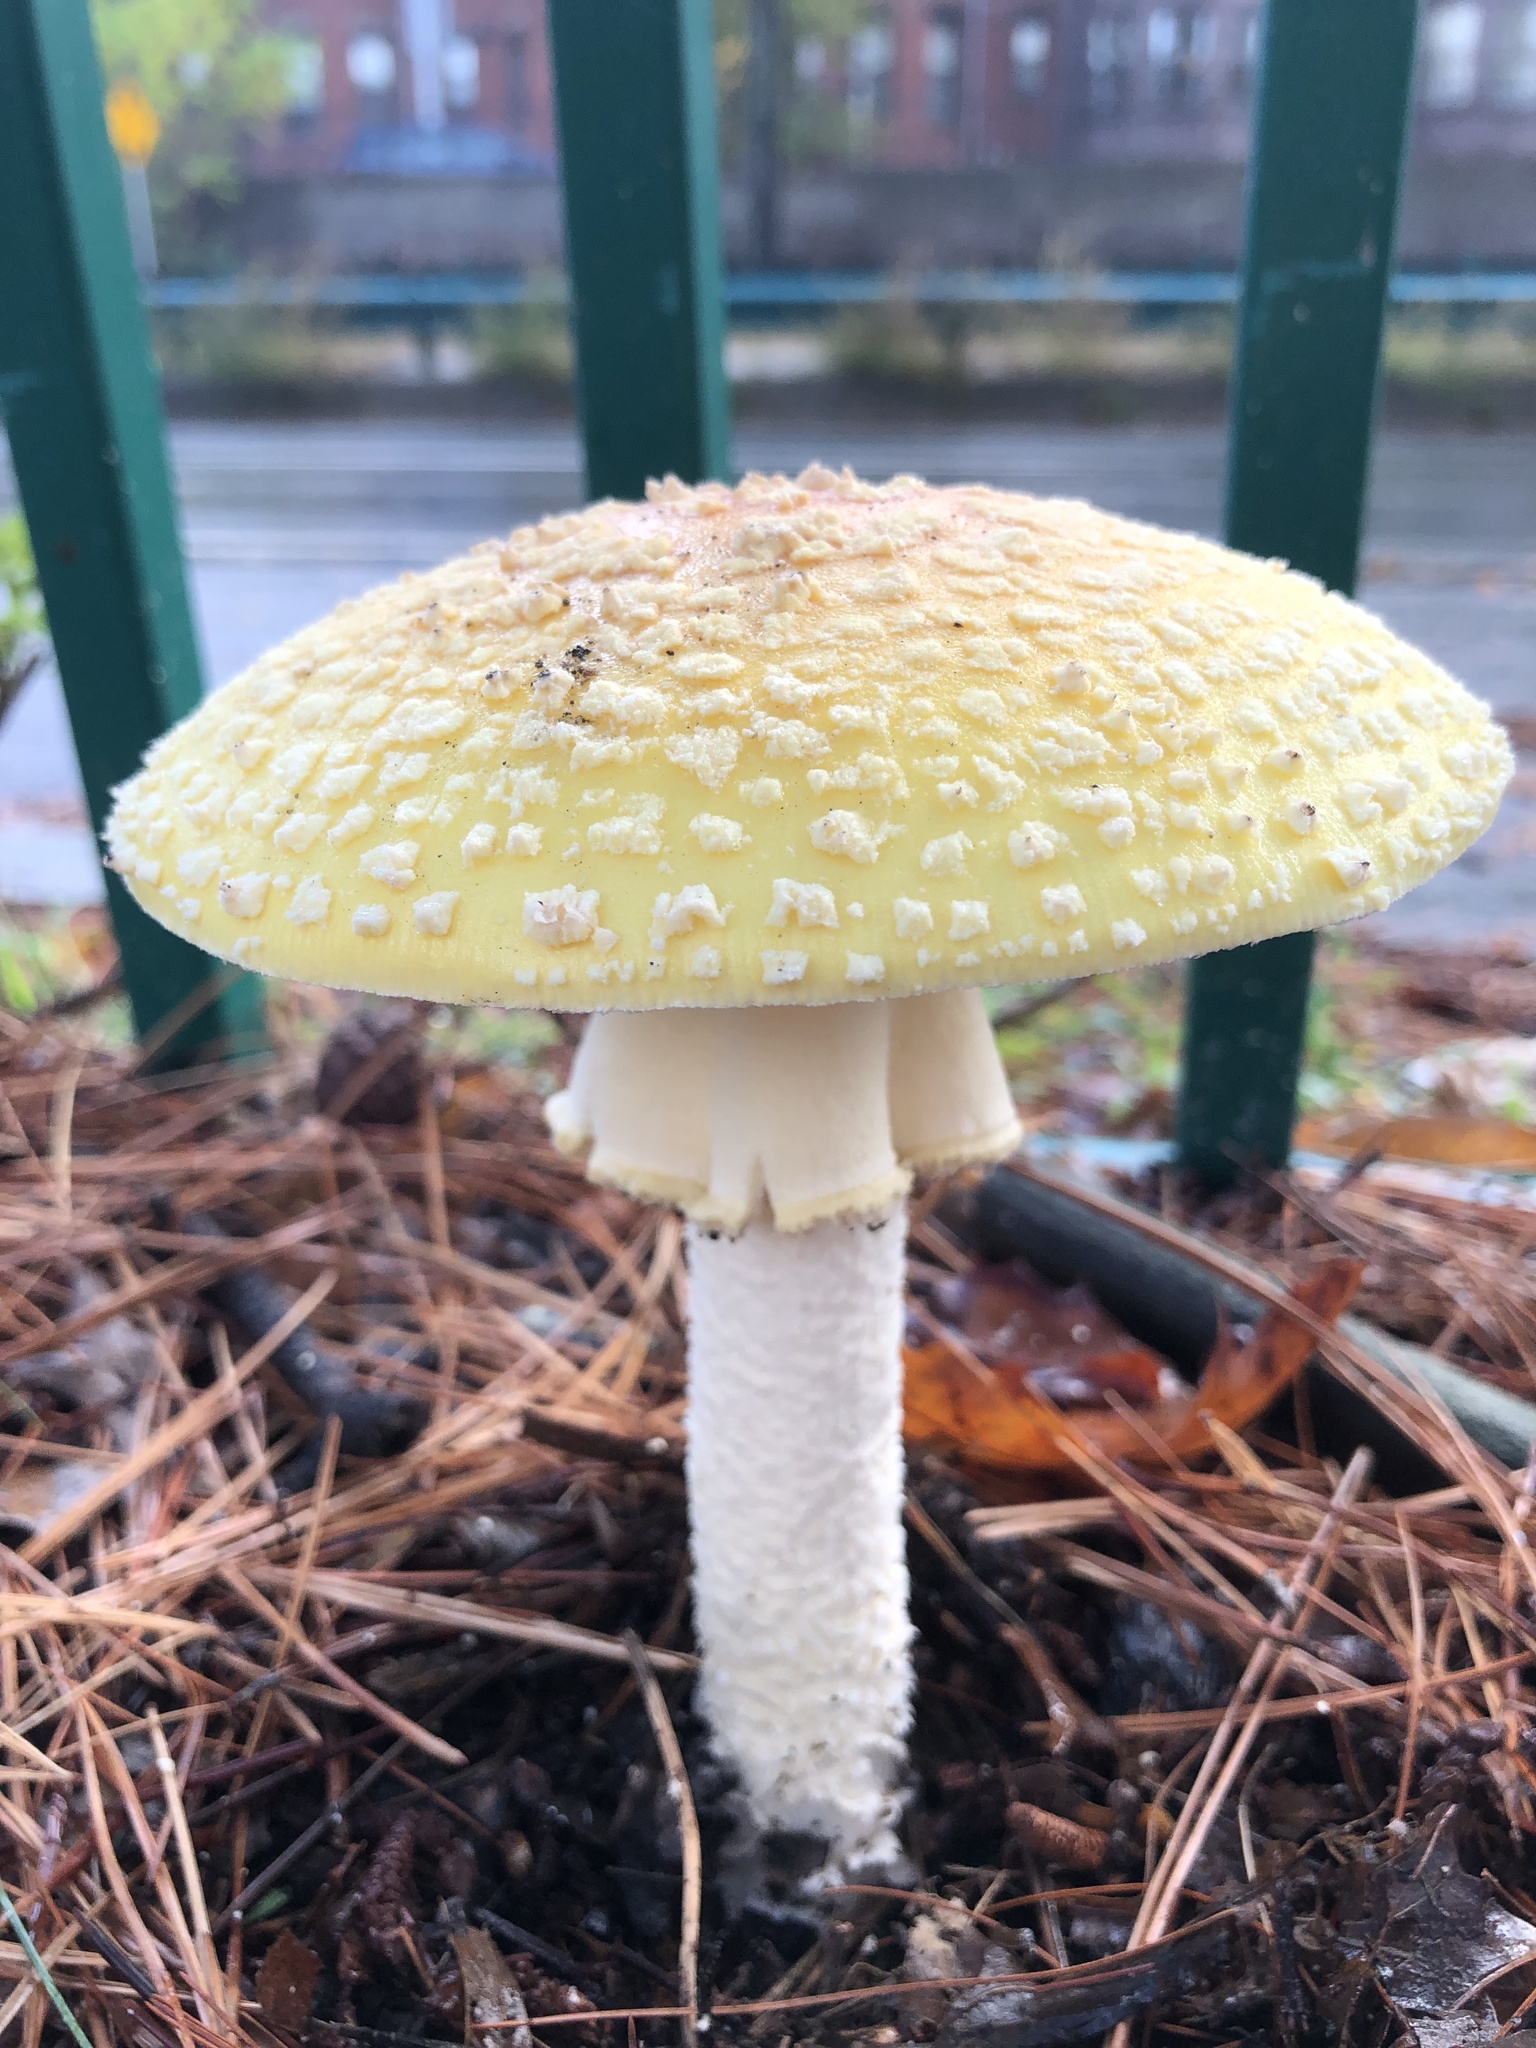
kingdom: Fungi
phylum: Basidiomycota
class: Agaricomycetes
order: Agaricales
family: Amanitaceae
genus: Amanita
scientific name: Amanita muscaria
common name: Fly agaric
